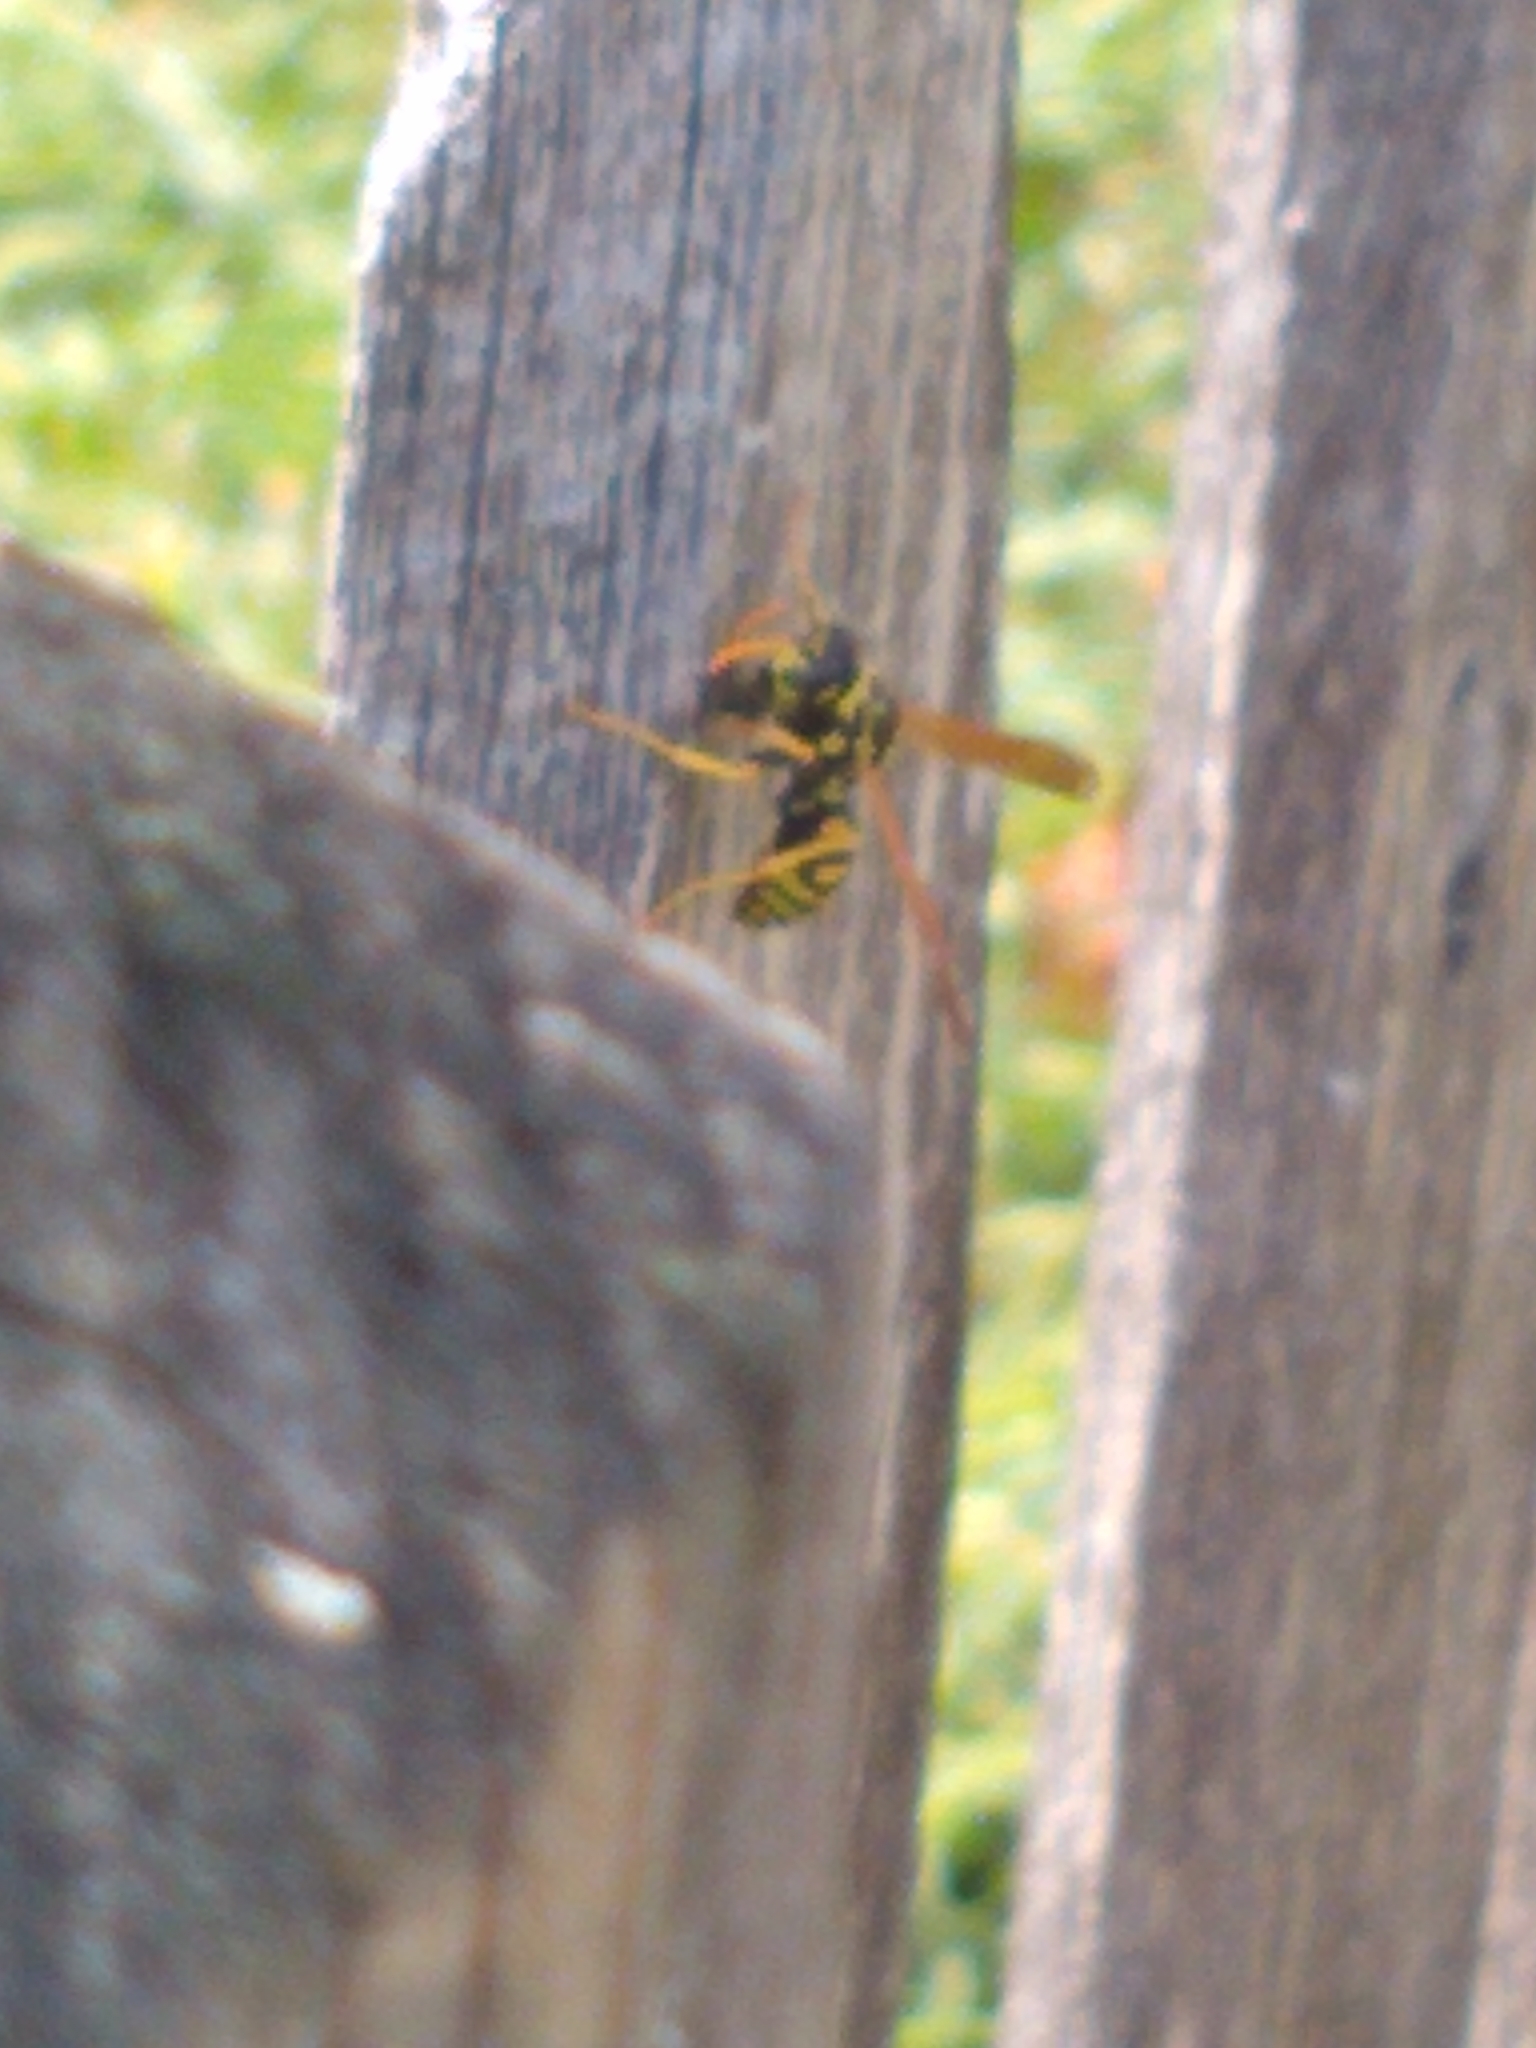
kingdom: Animalia
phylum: Arthropoda
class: Insecta
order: Hymenoptera
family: Eumenidae
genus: Polistes
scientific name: Polistes dominula
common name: Paper wasp
